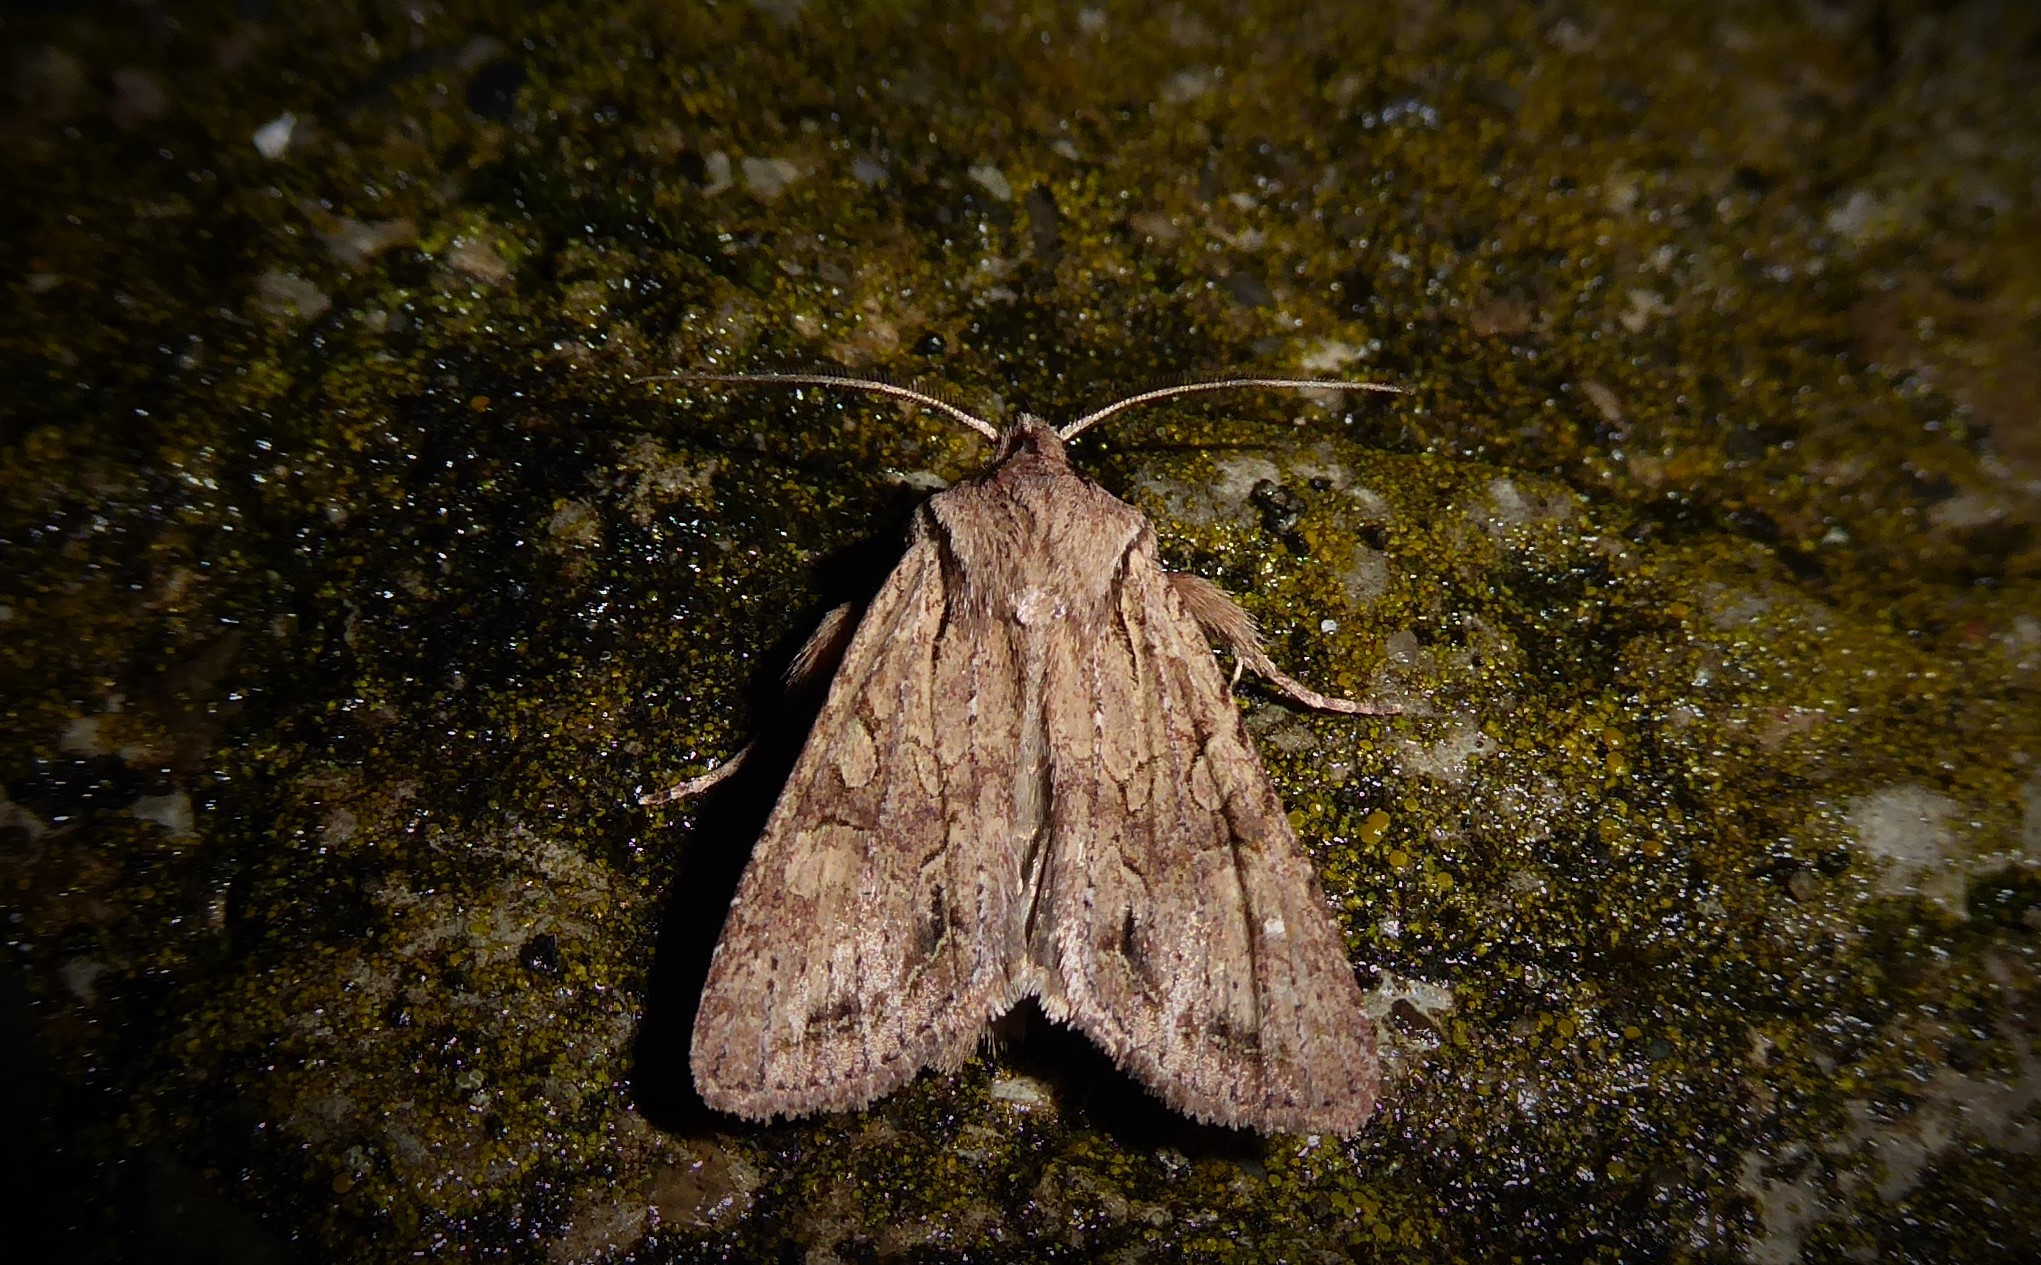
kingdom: Animalia
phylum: Arthropoda
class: Insecta
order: Lepidoptera
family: Noctuidae
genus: Ichneutica
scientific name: Ichneutica
